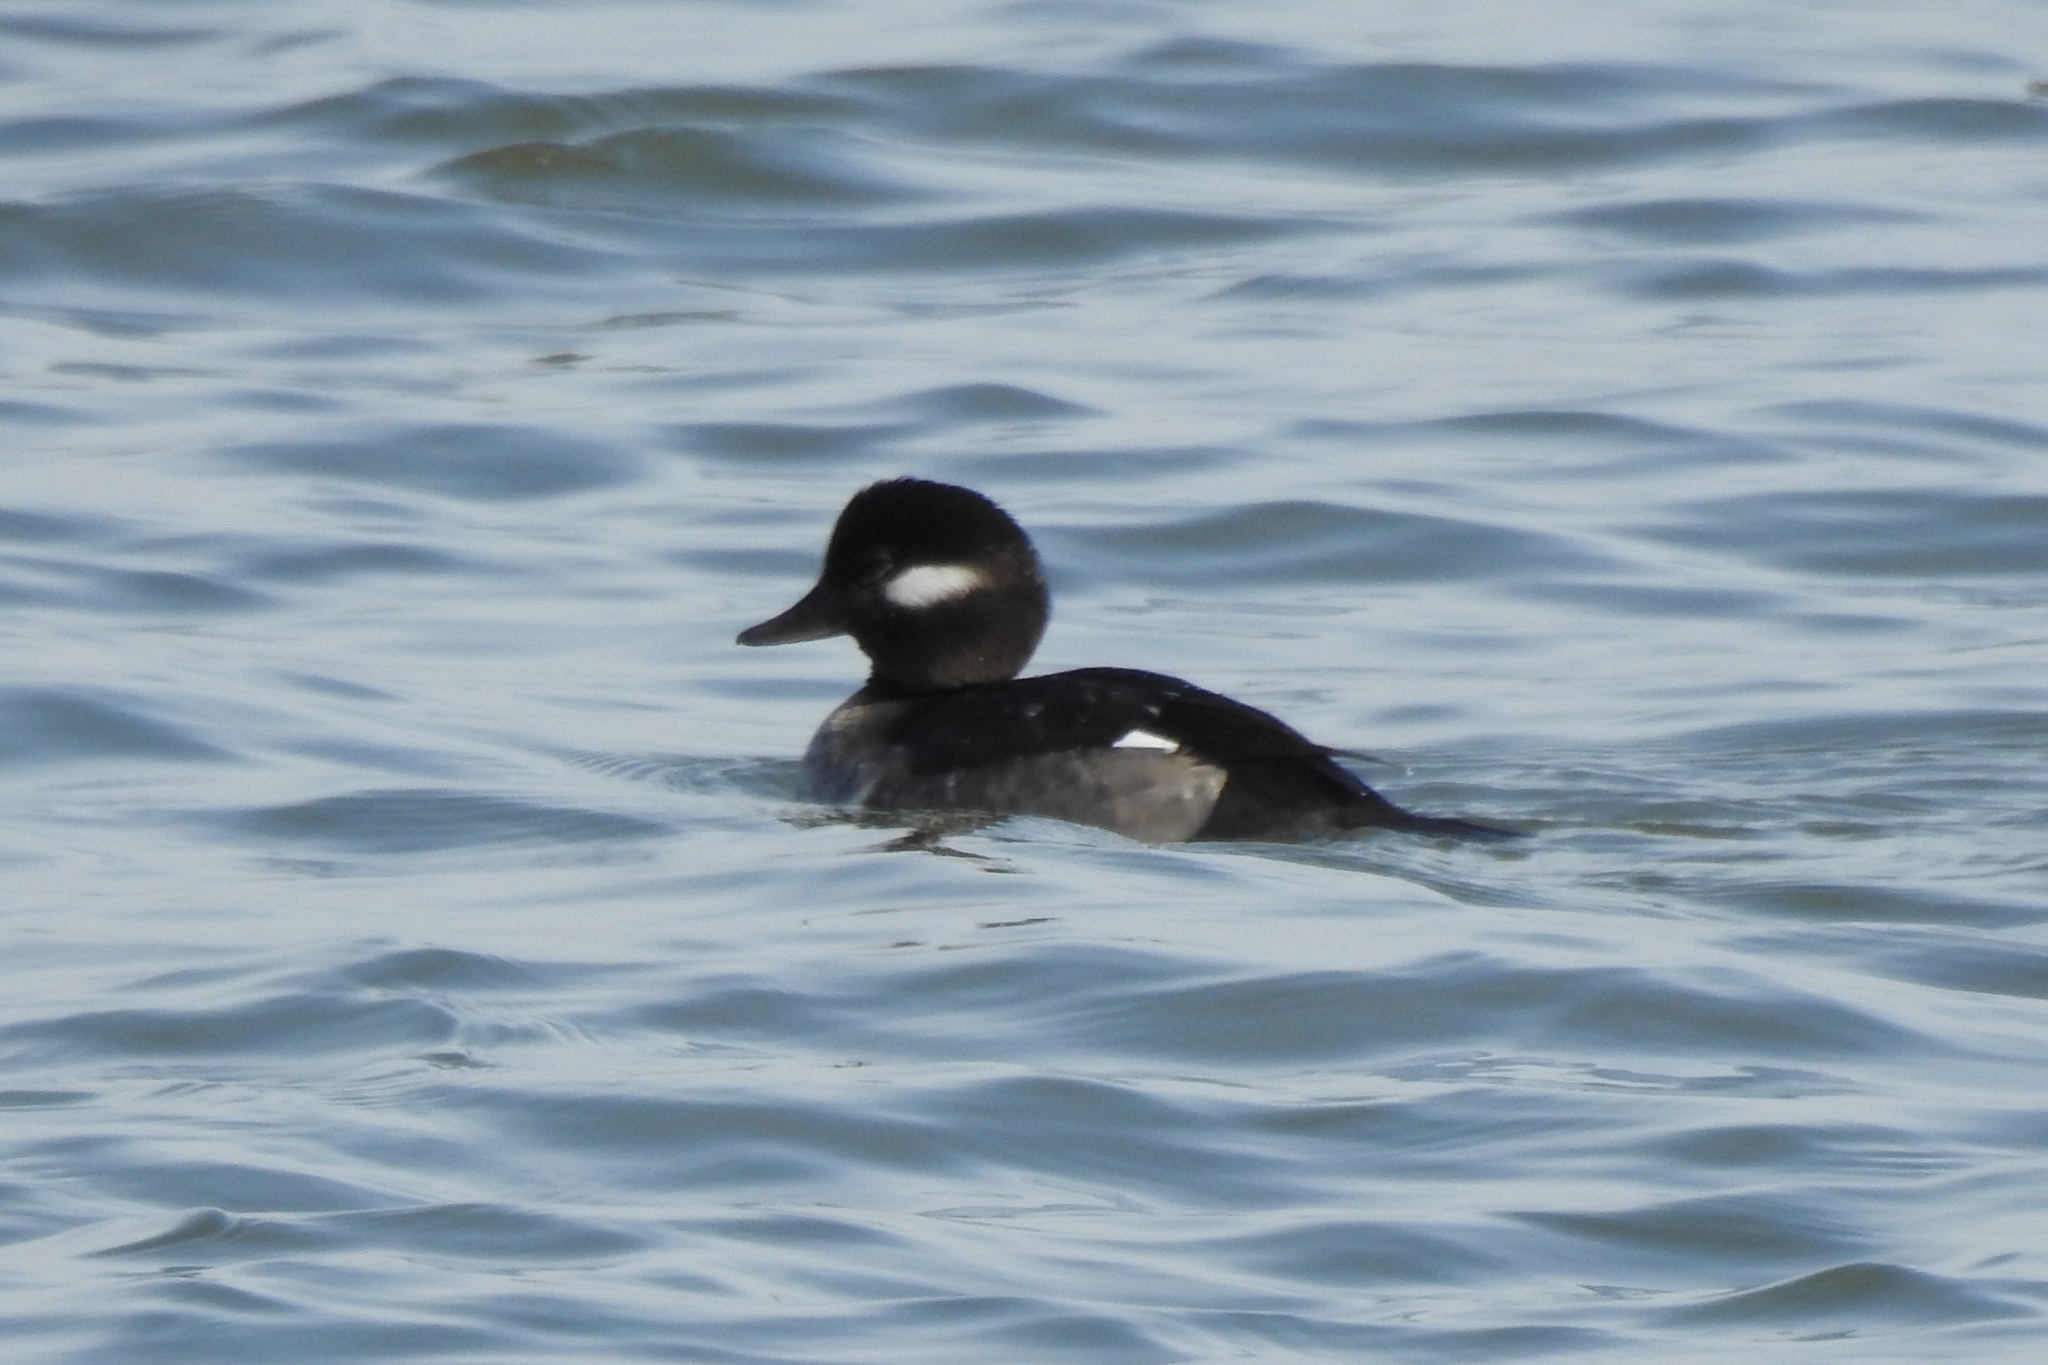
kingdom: Animalia
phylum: Chordata
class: Aves
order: Anseriformes
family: Anatidae
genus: Bucephala
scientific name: Bucephala albeola
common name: Bufflehead
